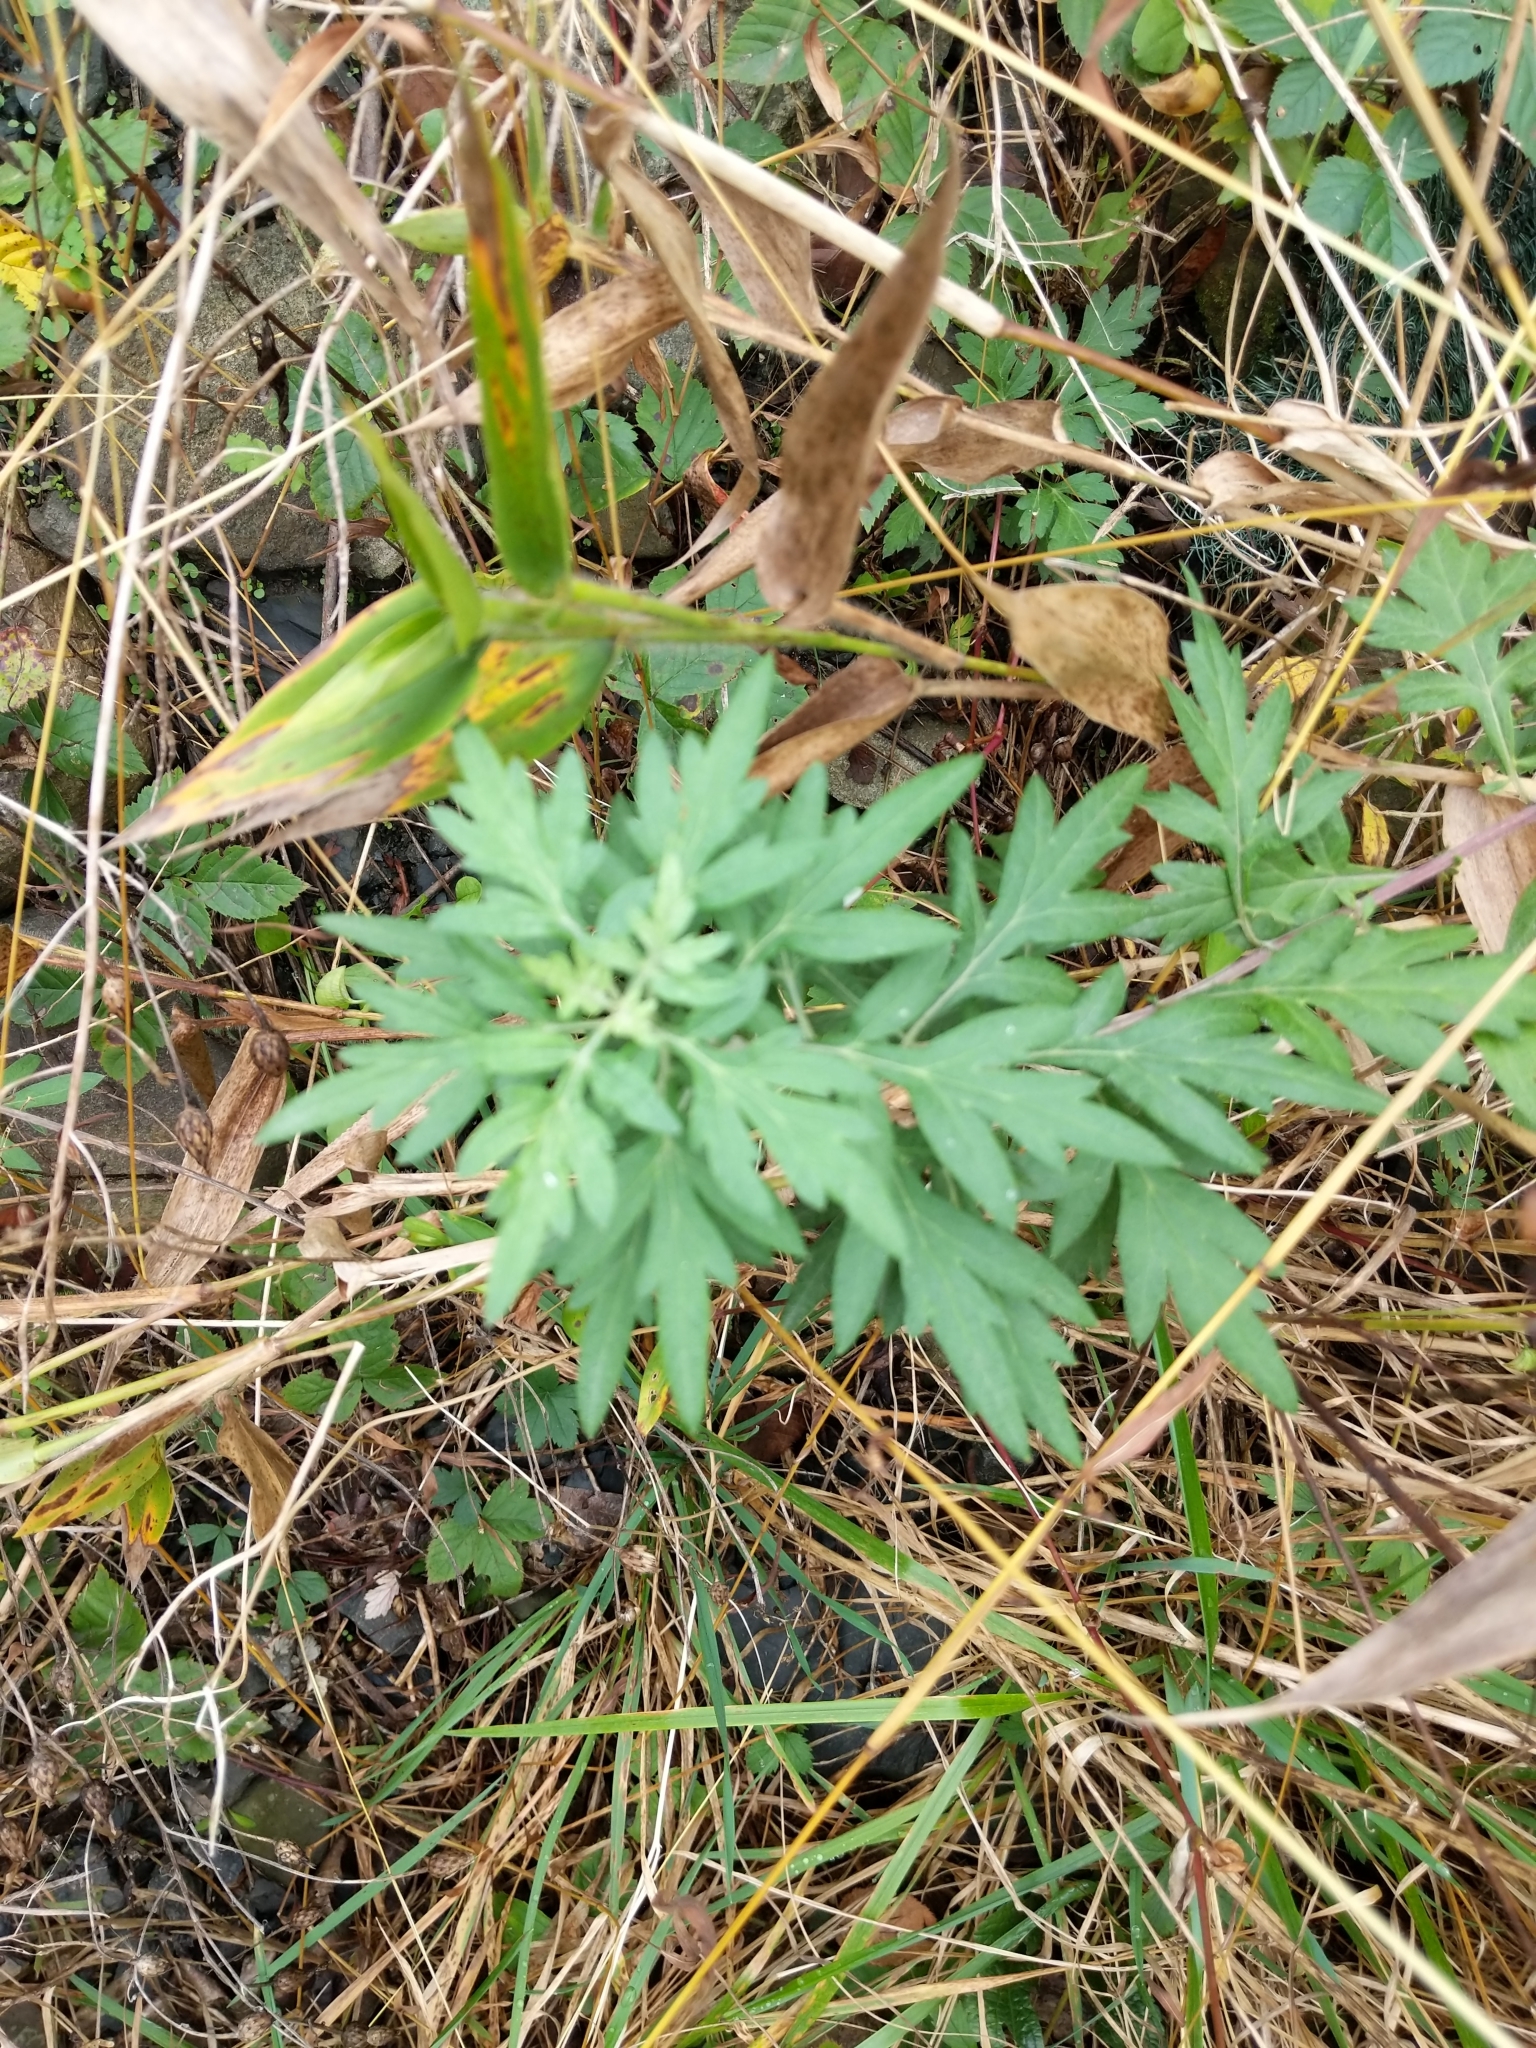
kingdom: Plantae
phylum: Tracheophyta
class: Magnoliopsida
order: Asterales
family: Asteraceae
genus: Artemisia
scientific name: Artemisia vulgaris
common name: Mugwort
